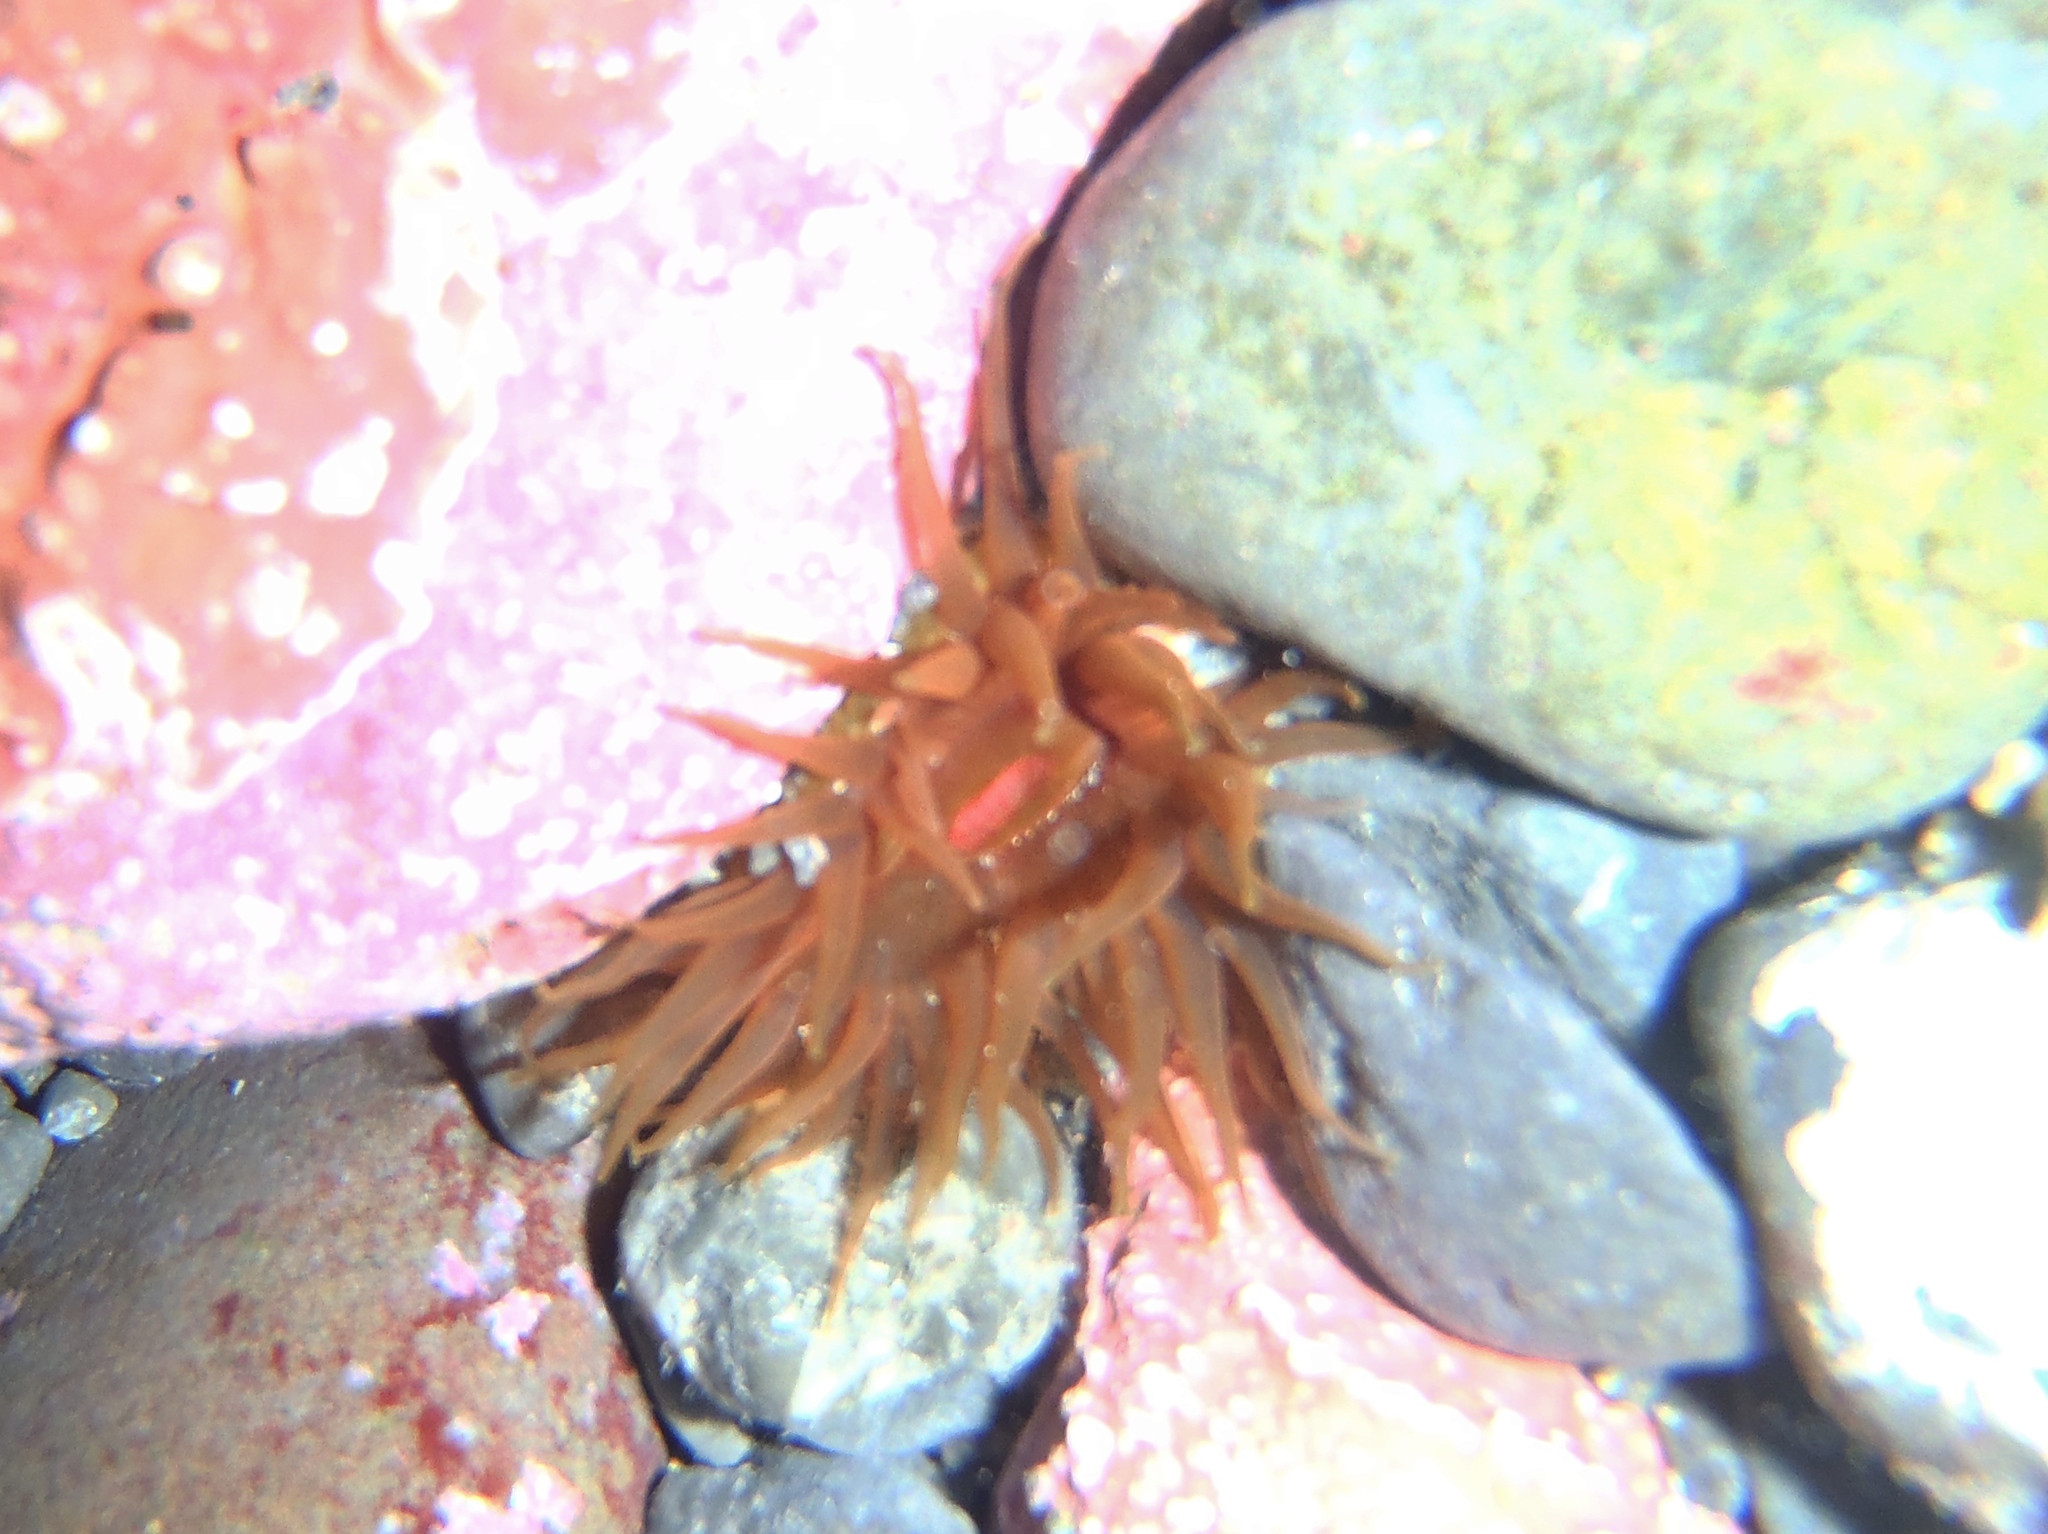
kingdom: Animalia
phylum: Cnidaria
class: Anthozoa
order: Actiniaria
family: Actiniidae
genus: Isactinia
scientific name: Isactinia olivacea
